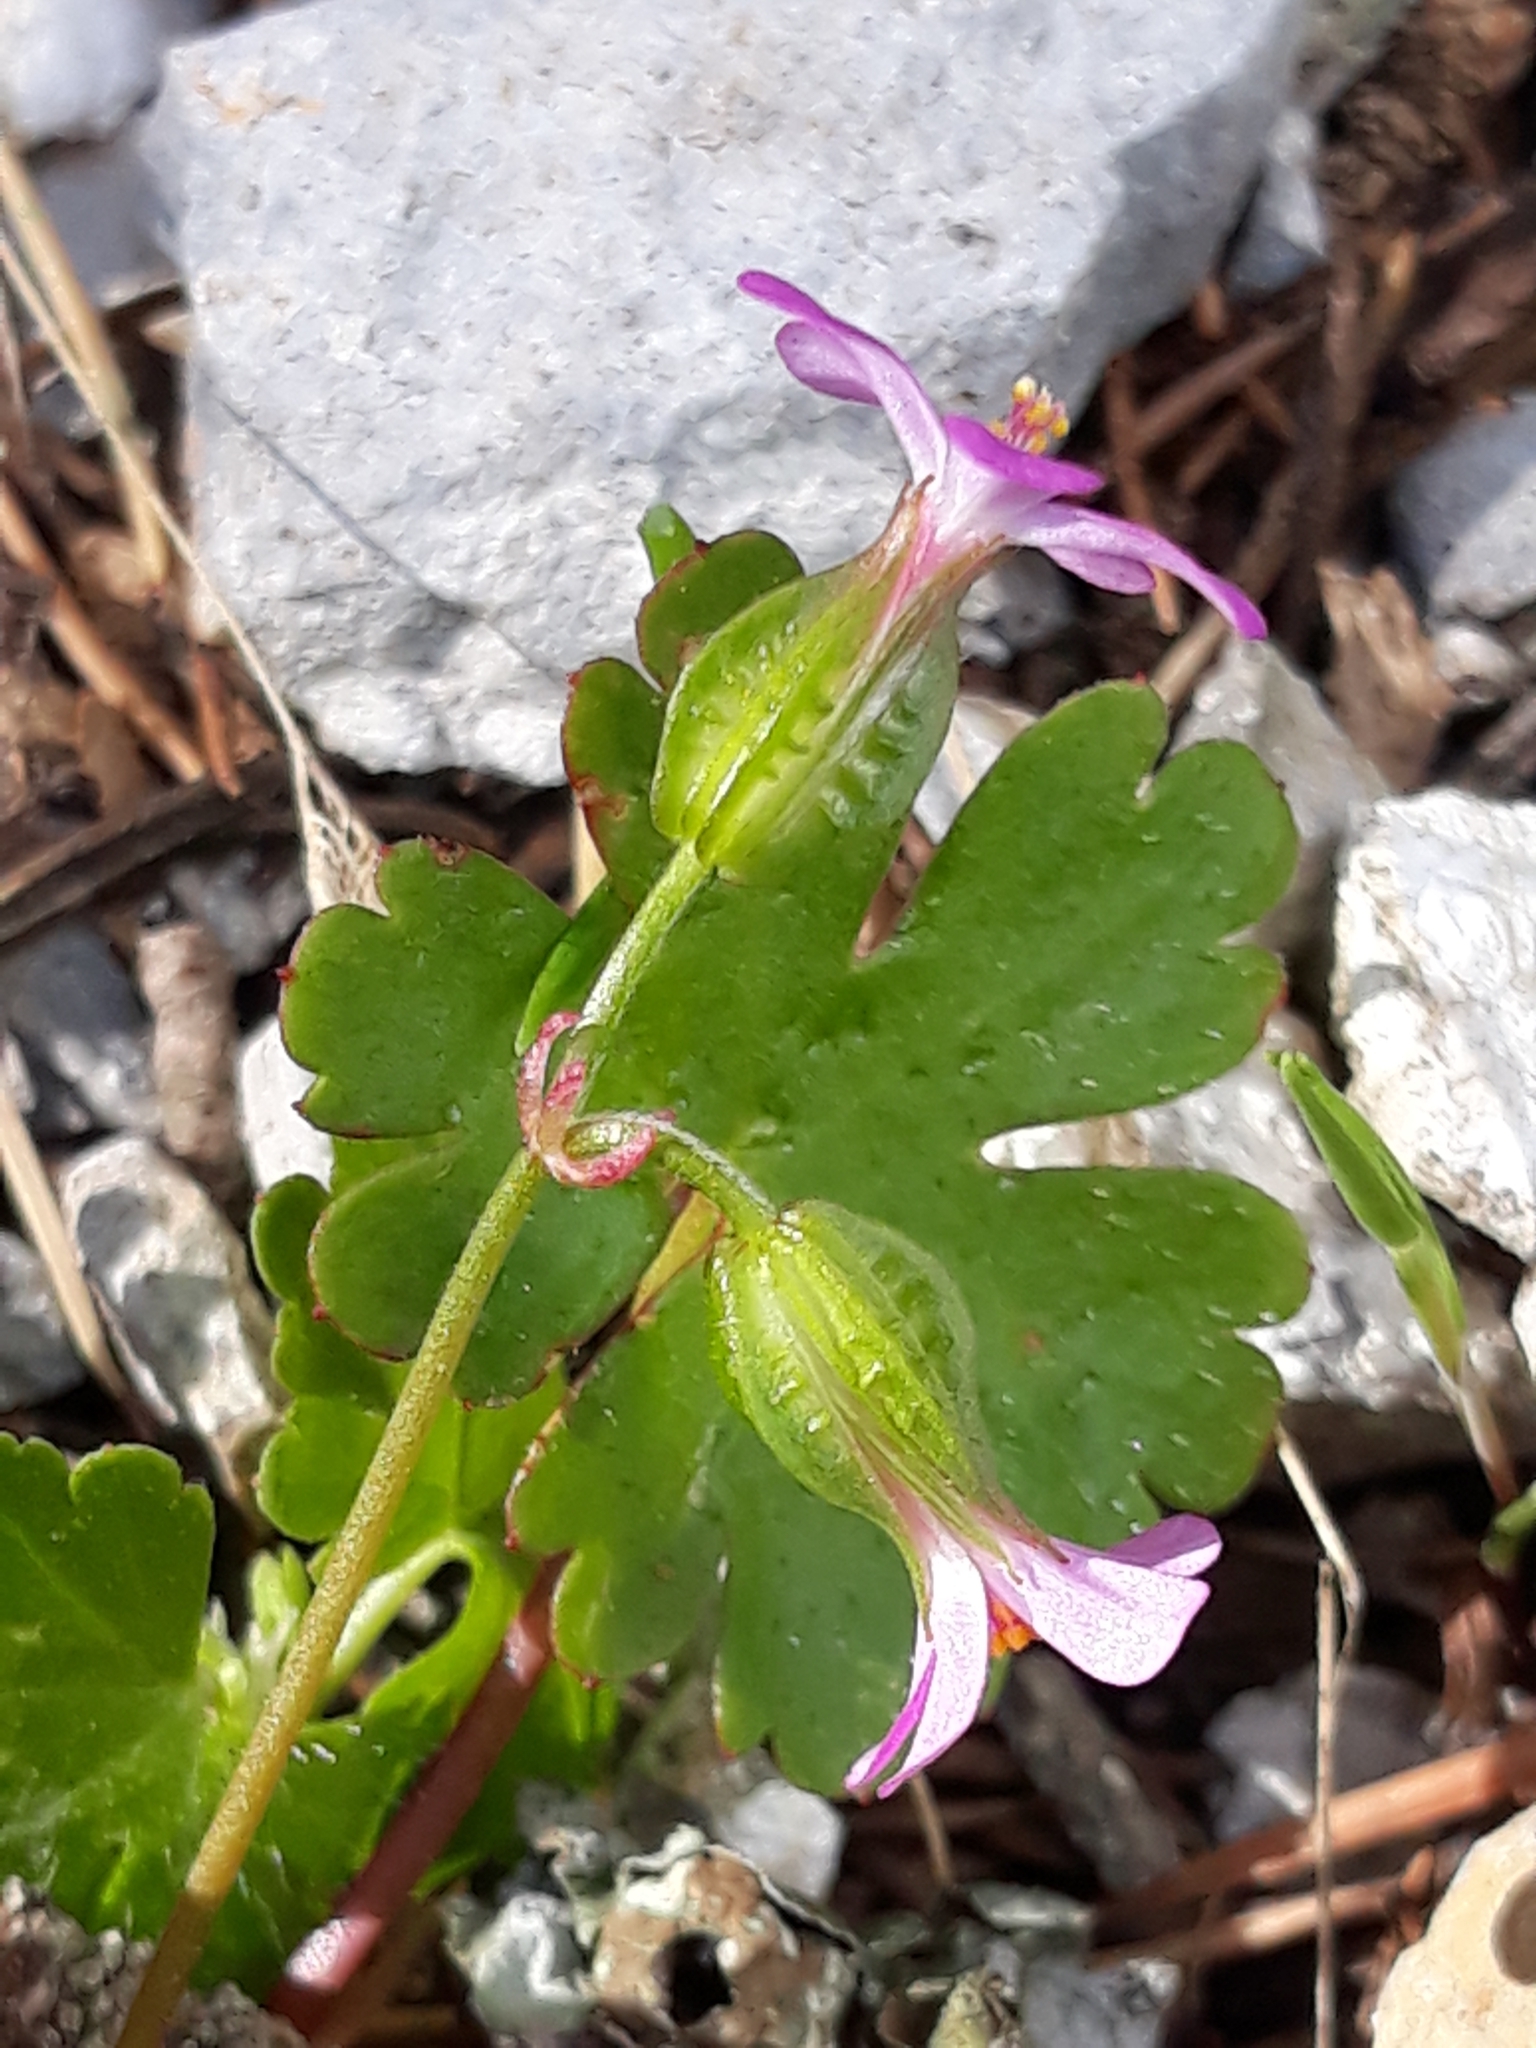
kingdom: Plantae
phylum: Tracheophyta
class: Magnoliopsida
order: Geraniales
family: Geraniaceae
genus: Geranium
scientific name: Geranium lucidum
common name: Shining crane's-bill
